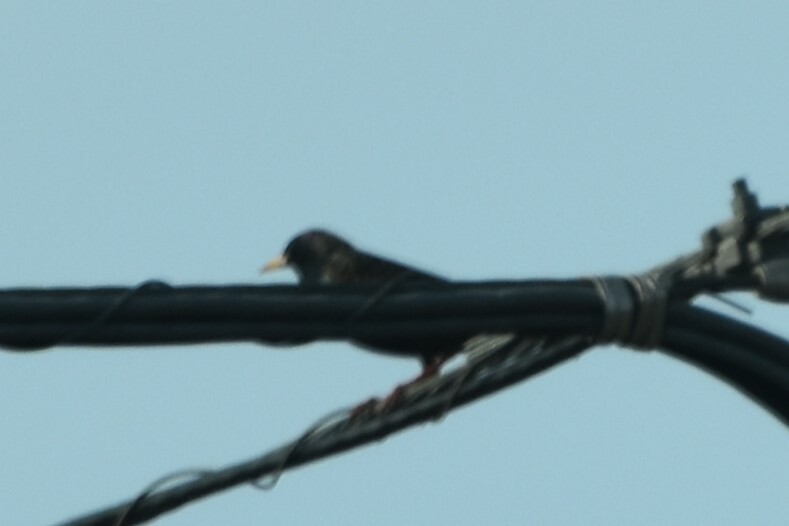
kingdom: Animalia
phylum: Chordata
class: Aves
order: Passeriformes
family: Sturnidae
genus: Sturnus
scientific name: Sturnus vulgaris
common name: Common starling
